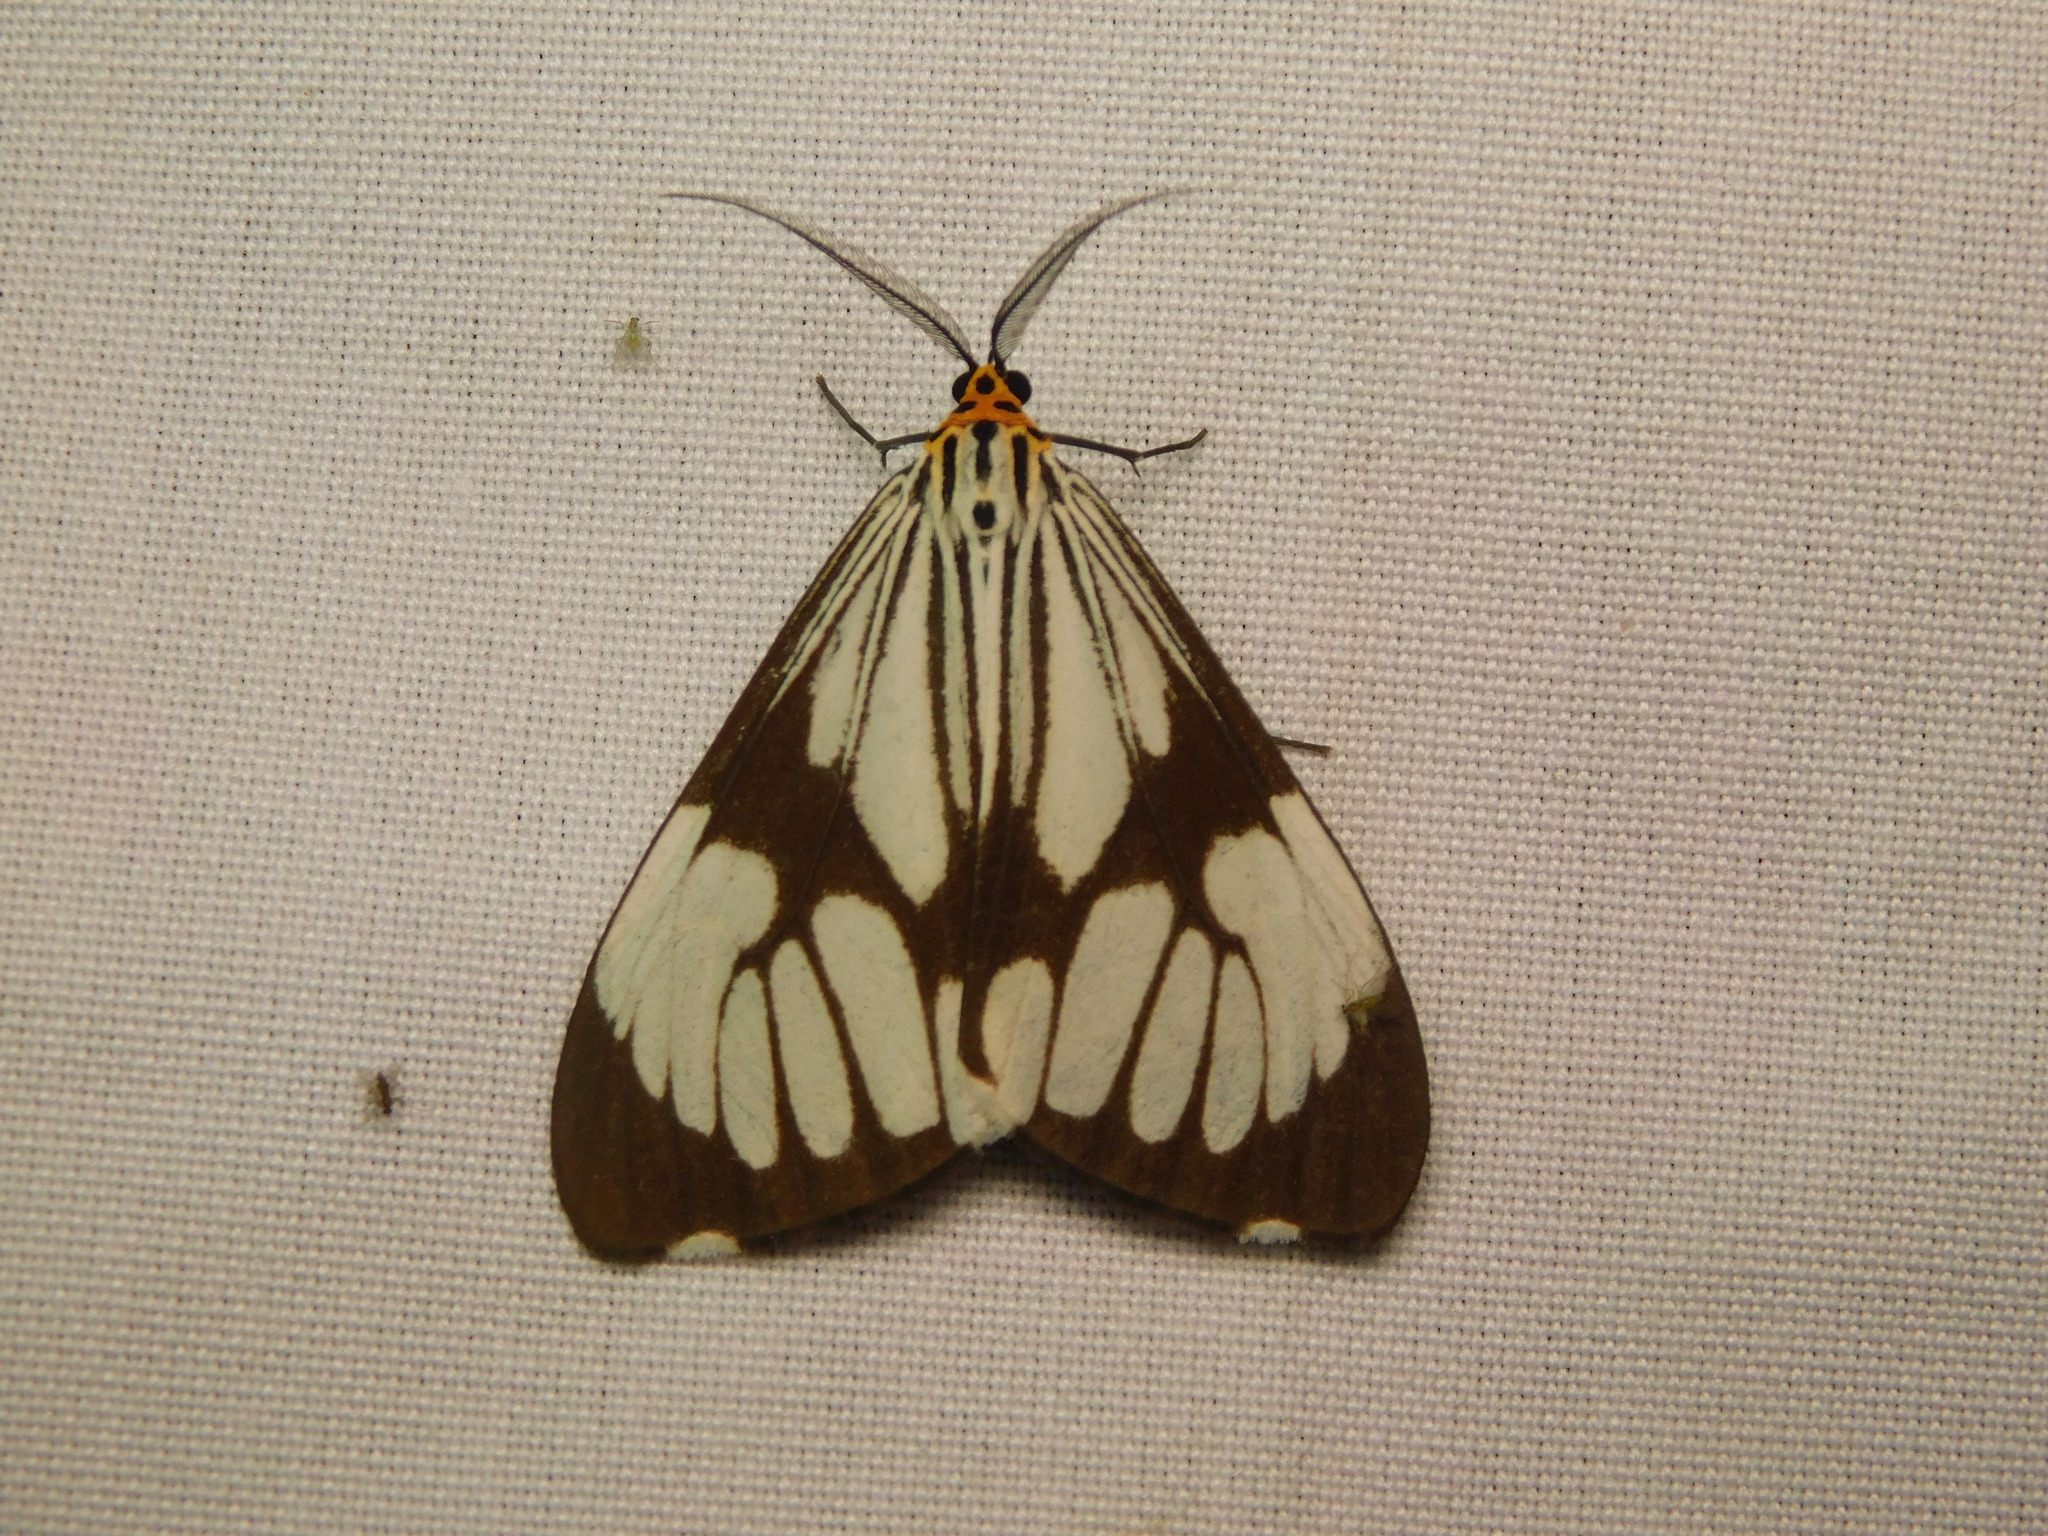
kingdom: Animalia
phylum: Arthropoda
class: Insecta
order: Lepidoptera
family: Erebidae
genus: Nyctemera
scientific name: Nyctemera coleta
